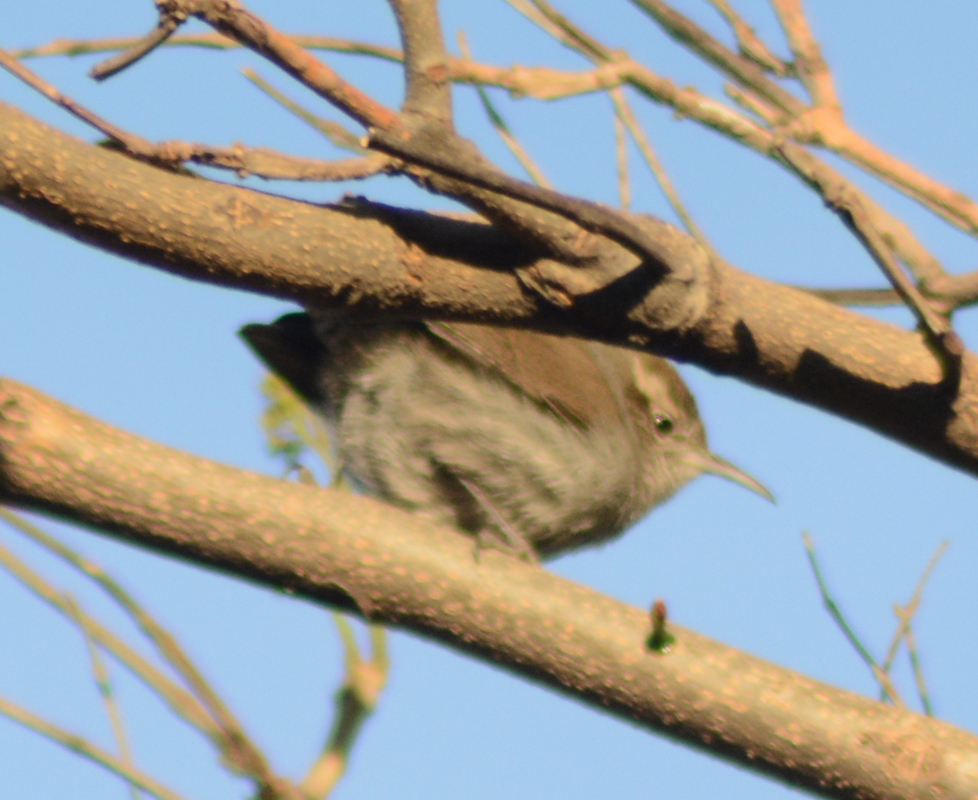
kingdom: Animalia
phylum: Chordata
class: Aves
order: Passeriformes
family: Troglodytidae
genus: Thryomanes
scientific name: Thryomanes bewickii
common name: Bewick's wren
